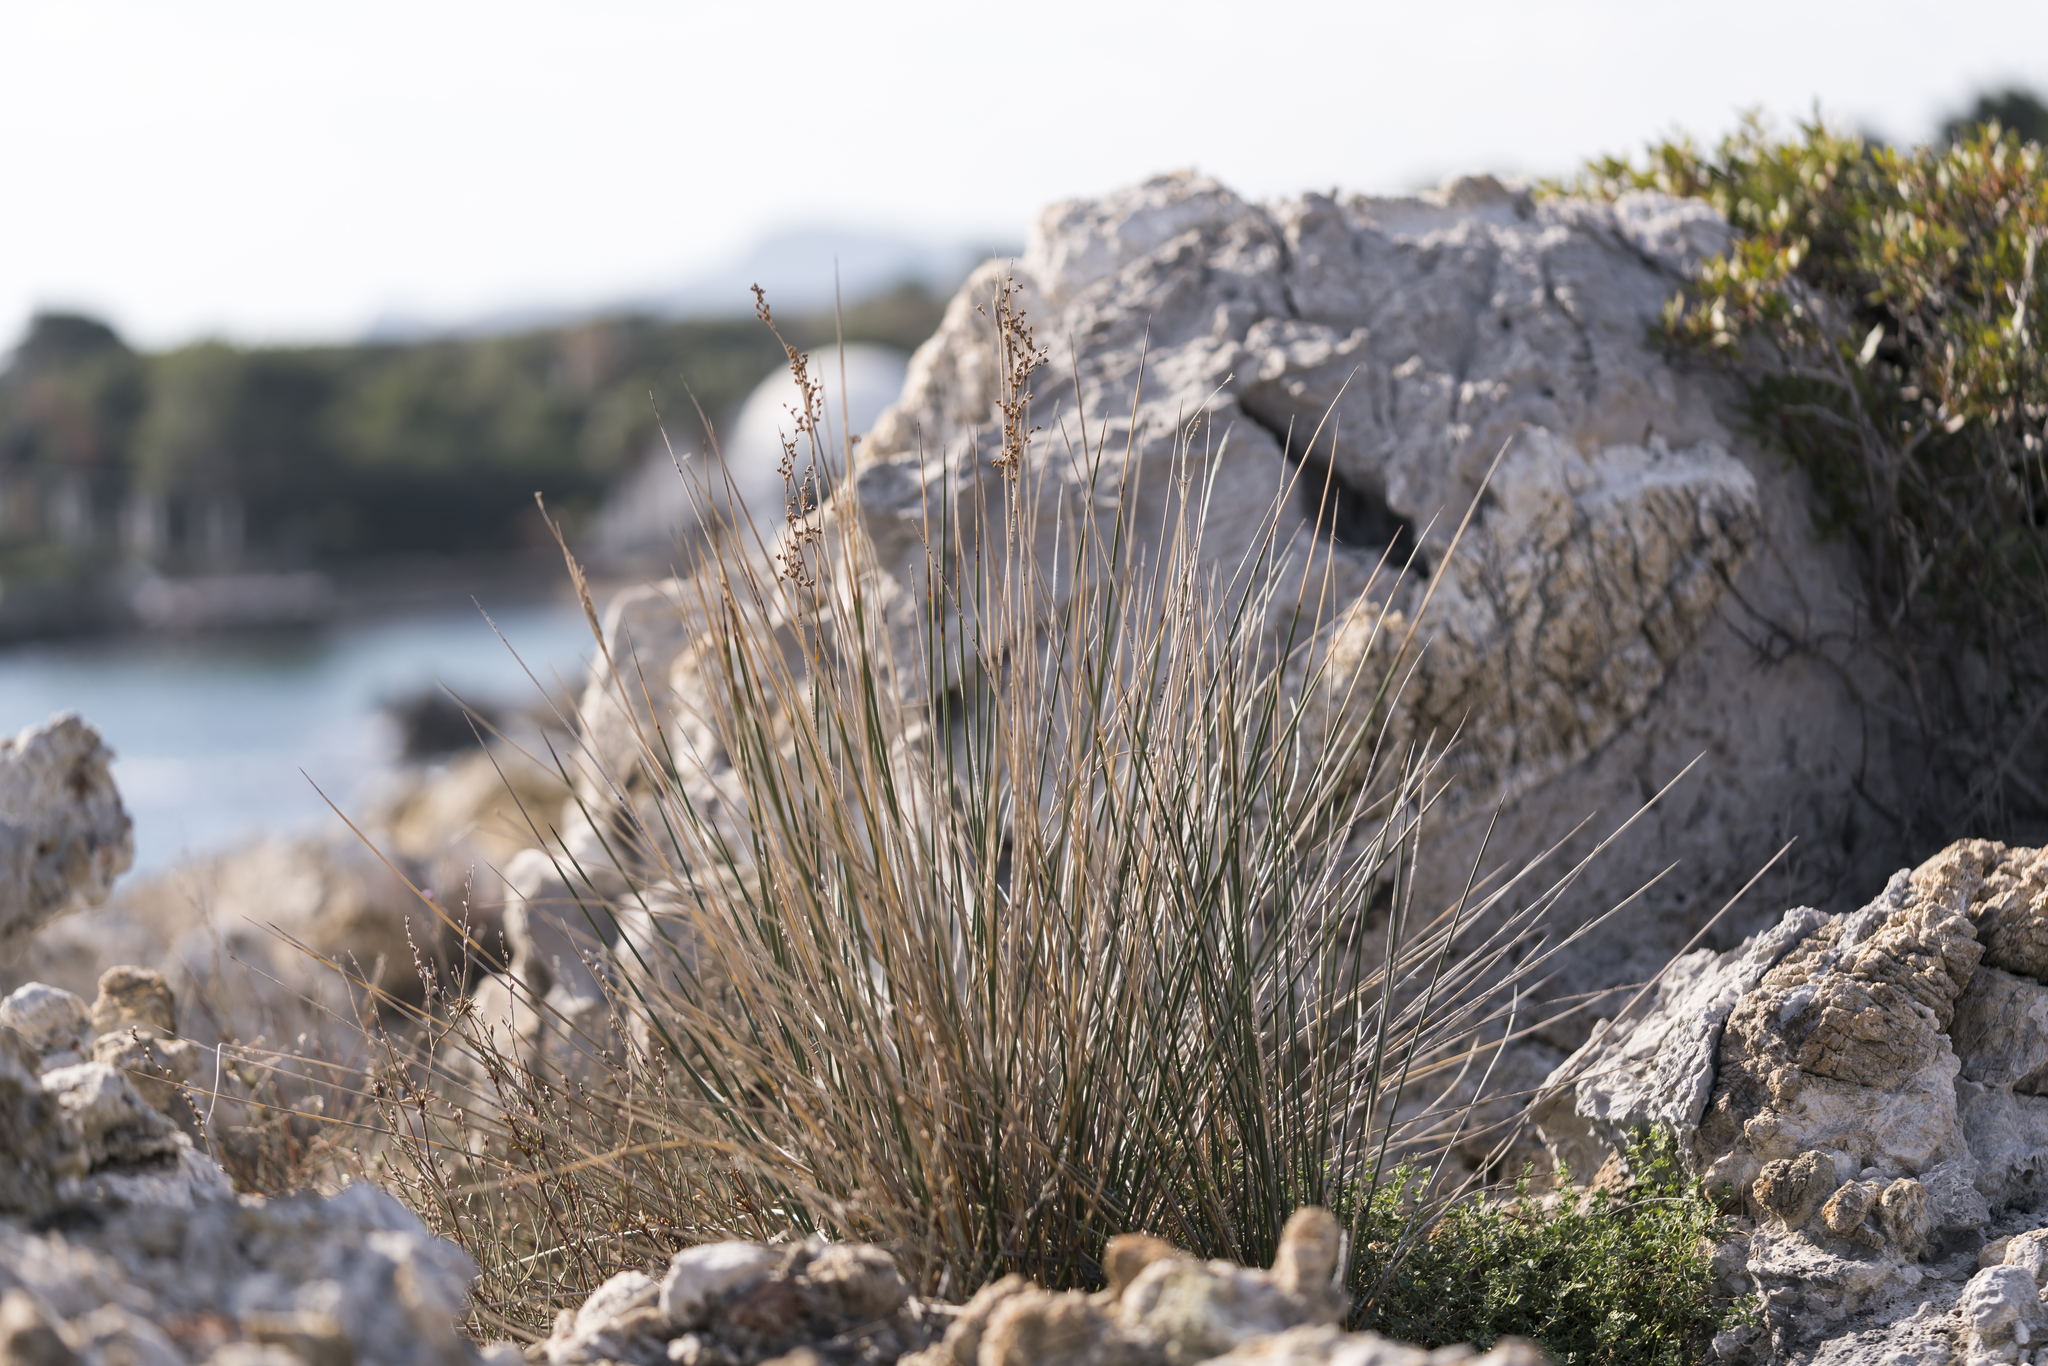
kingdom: Plantae
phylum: Tracheophyta
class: Liliopsida
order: Poales
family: Juncaceae
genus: Juncus
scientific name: Juncus heldreichianus
